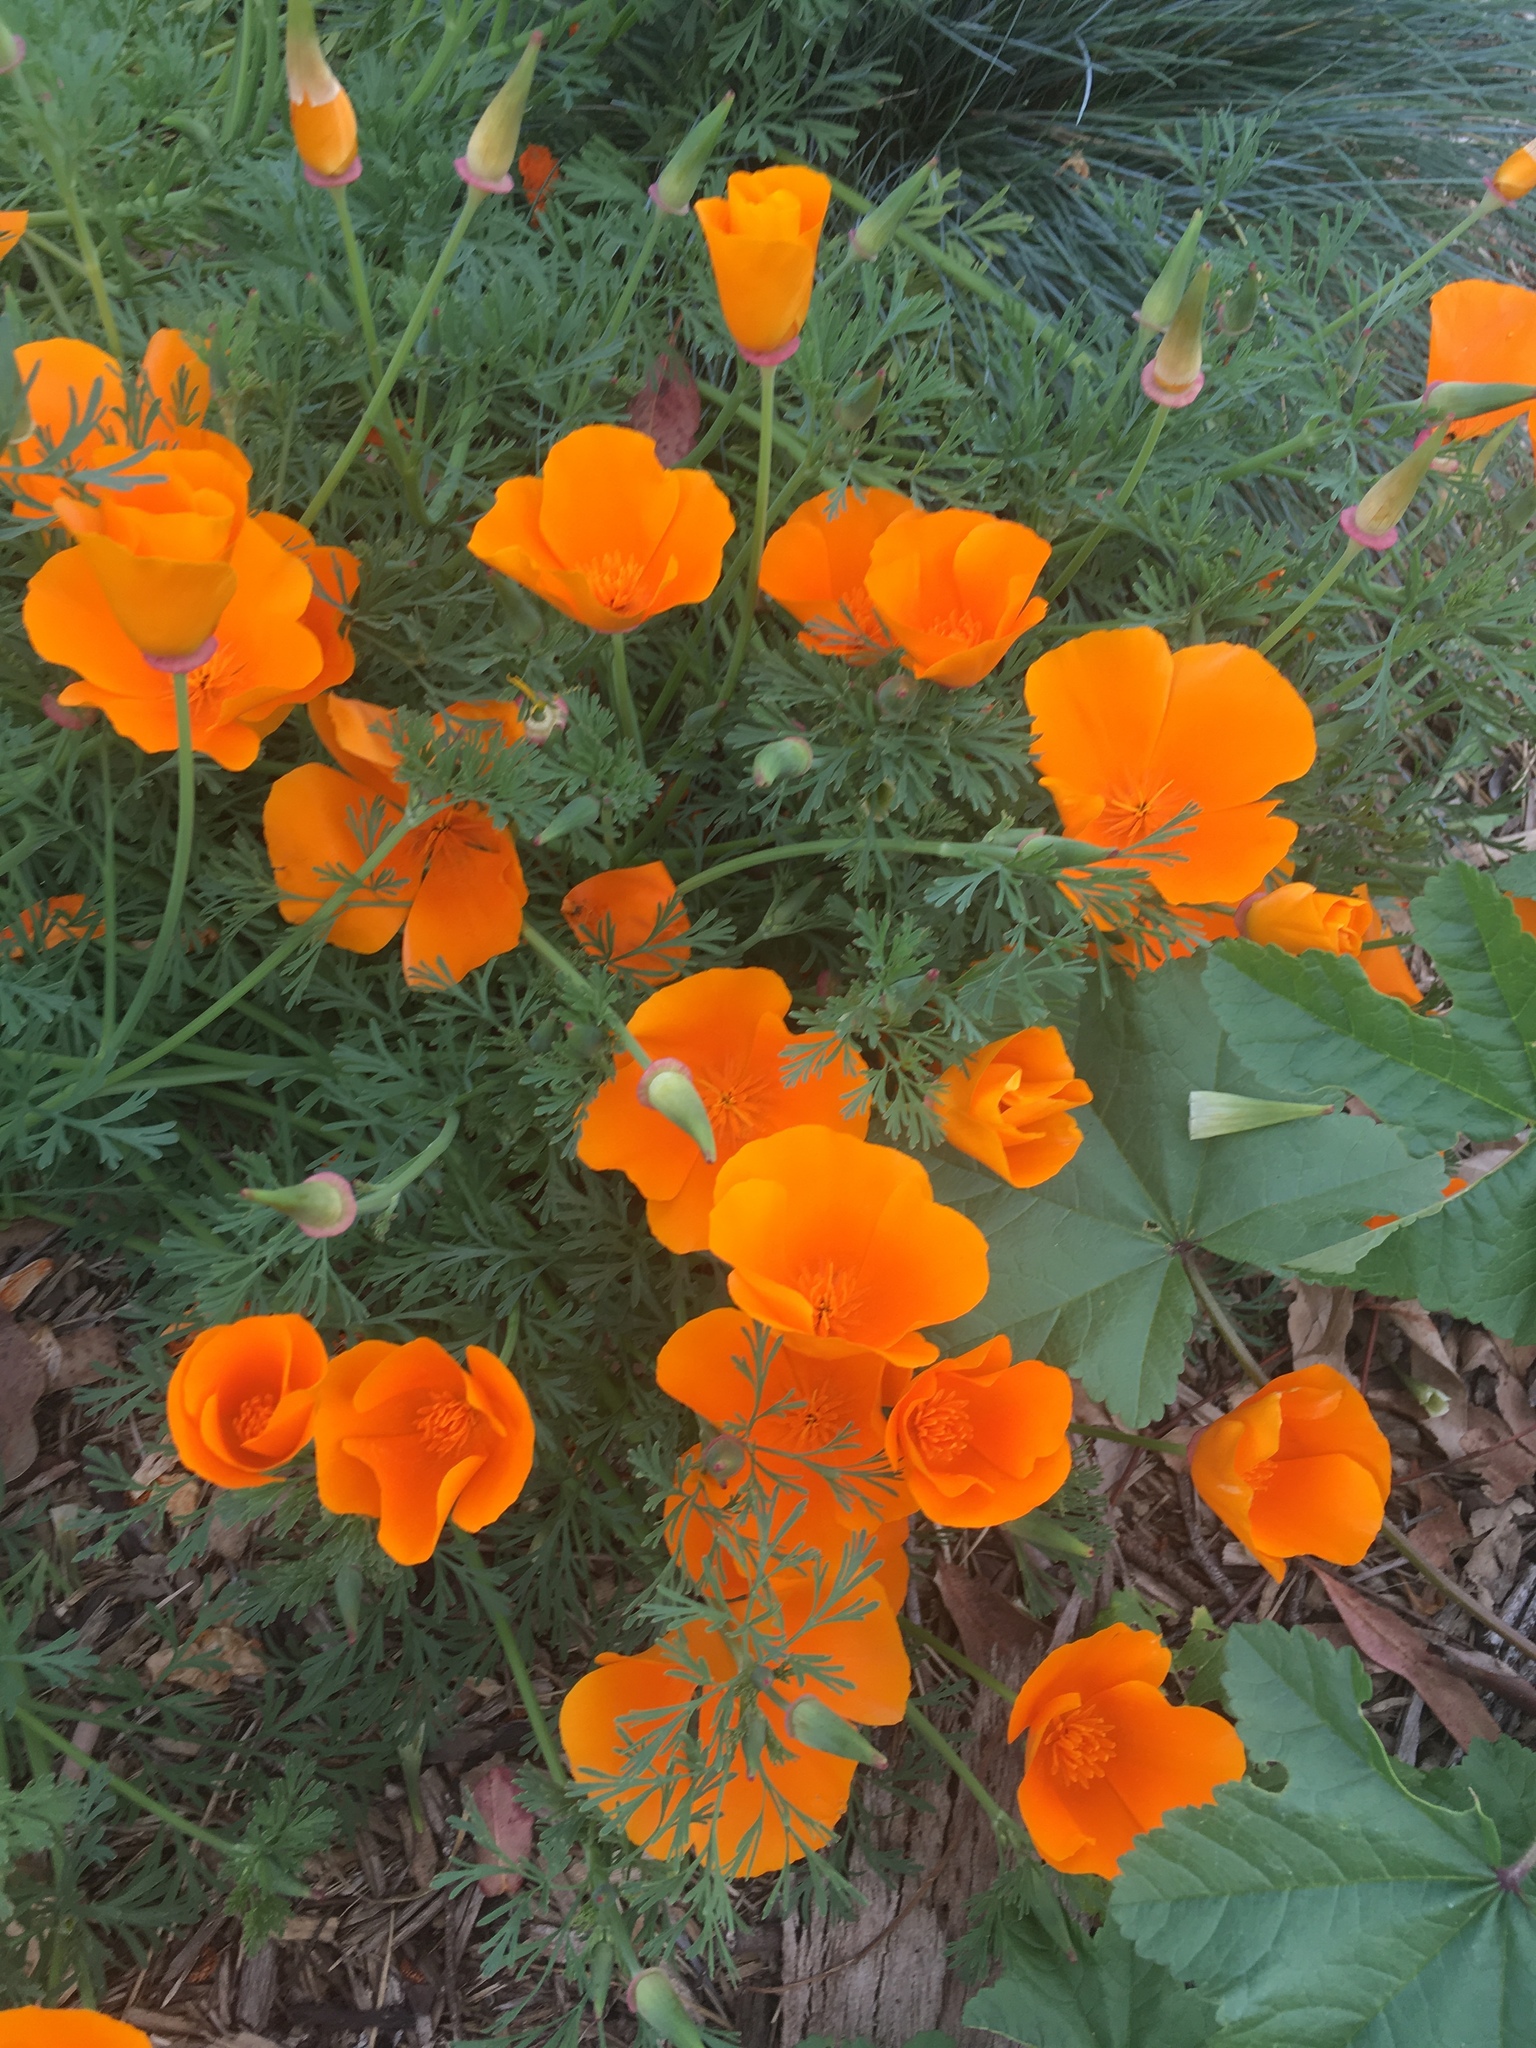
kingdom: Plantae
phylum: Tracheophyta
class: Magnoliopsida
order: Ranunculales
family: Papaveraceae
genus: Eschscholzia
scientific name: Eschscholzia californica
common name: California poppy
